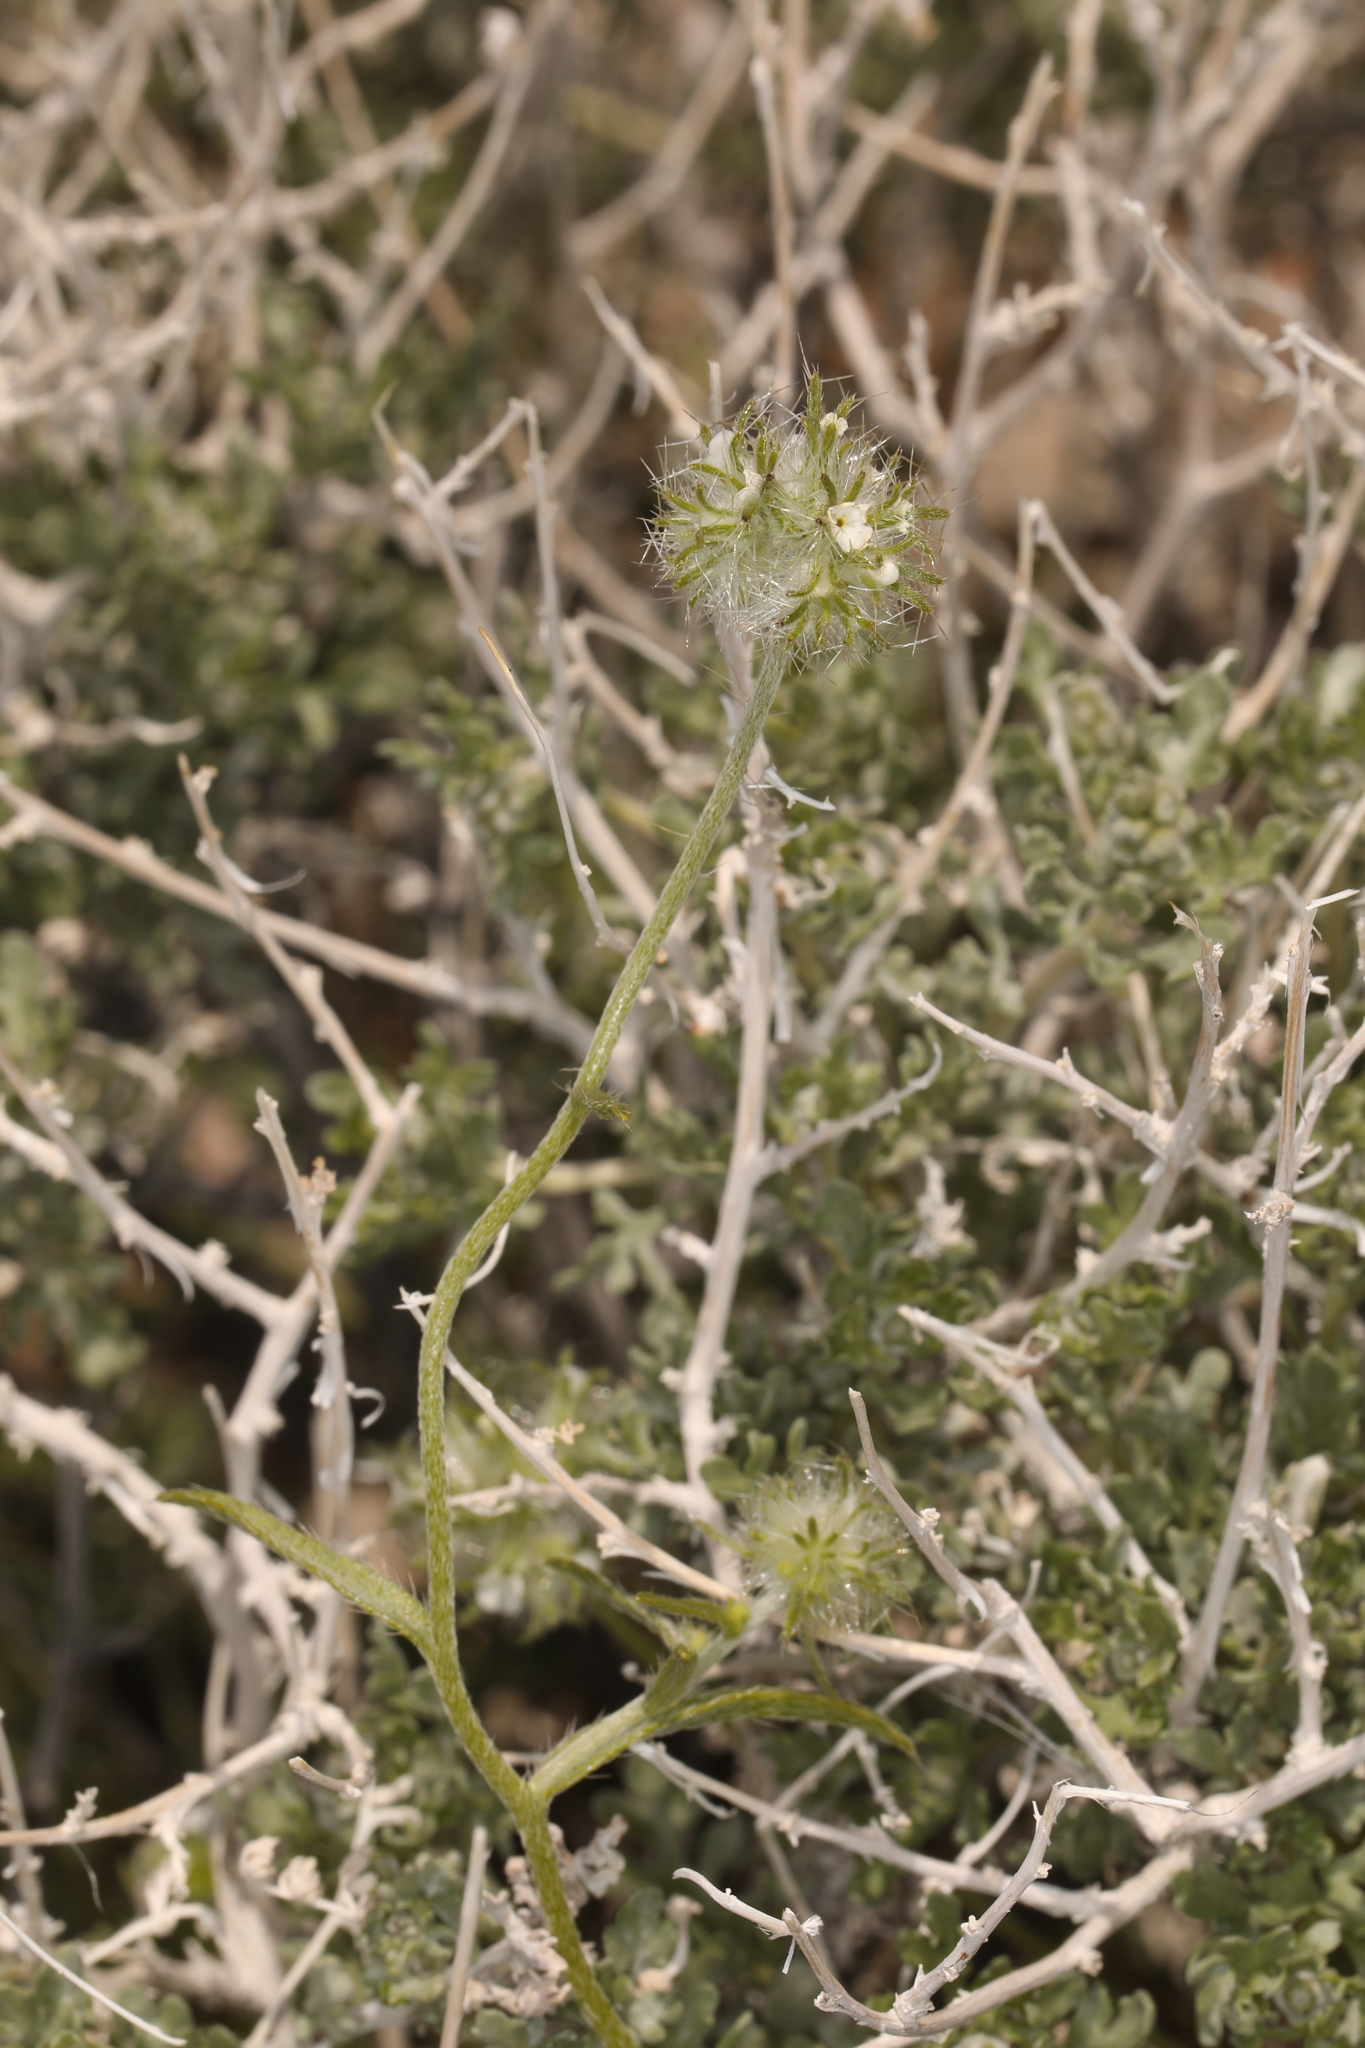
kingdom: Plantae
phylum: Tracheophyta
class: Magnoliopsida
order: Boraginales
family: Boraginaceae
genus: Cryptantha
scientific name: Cryptantha nevadensis
